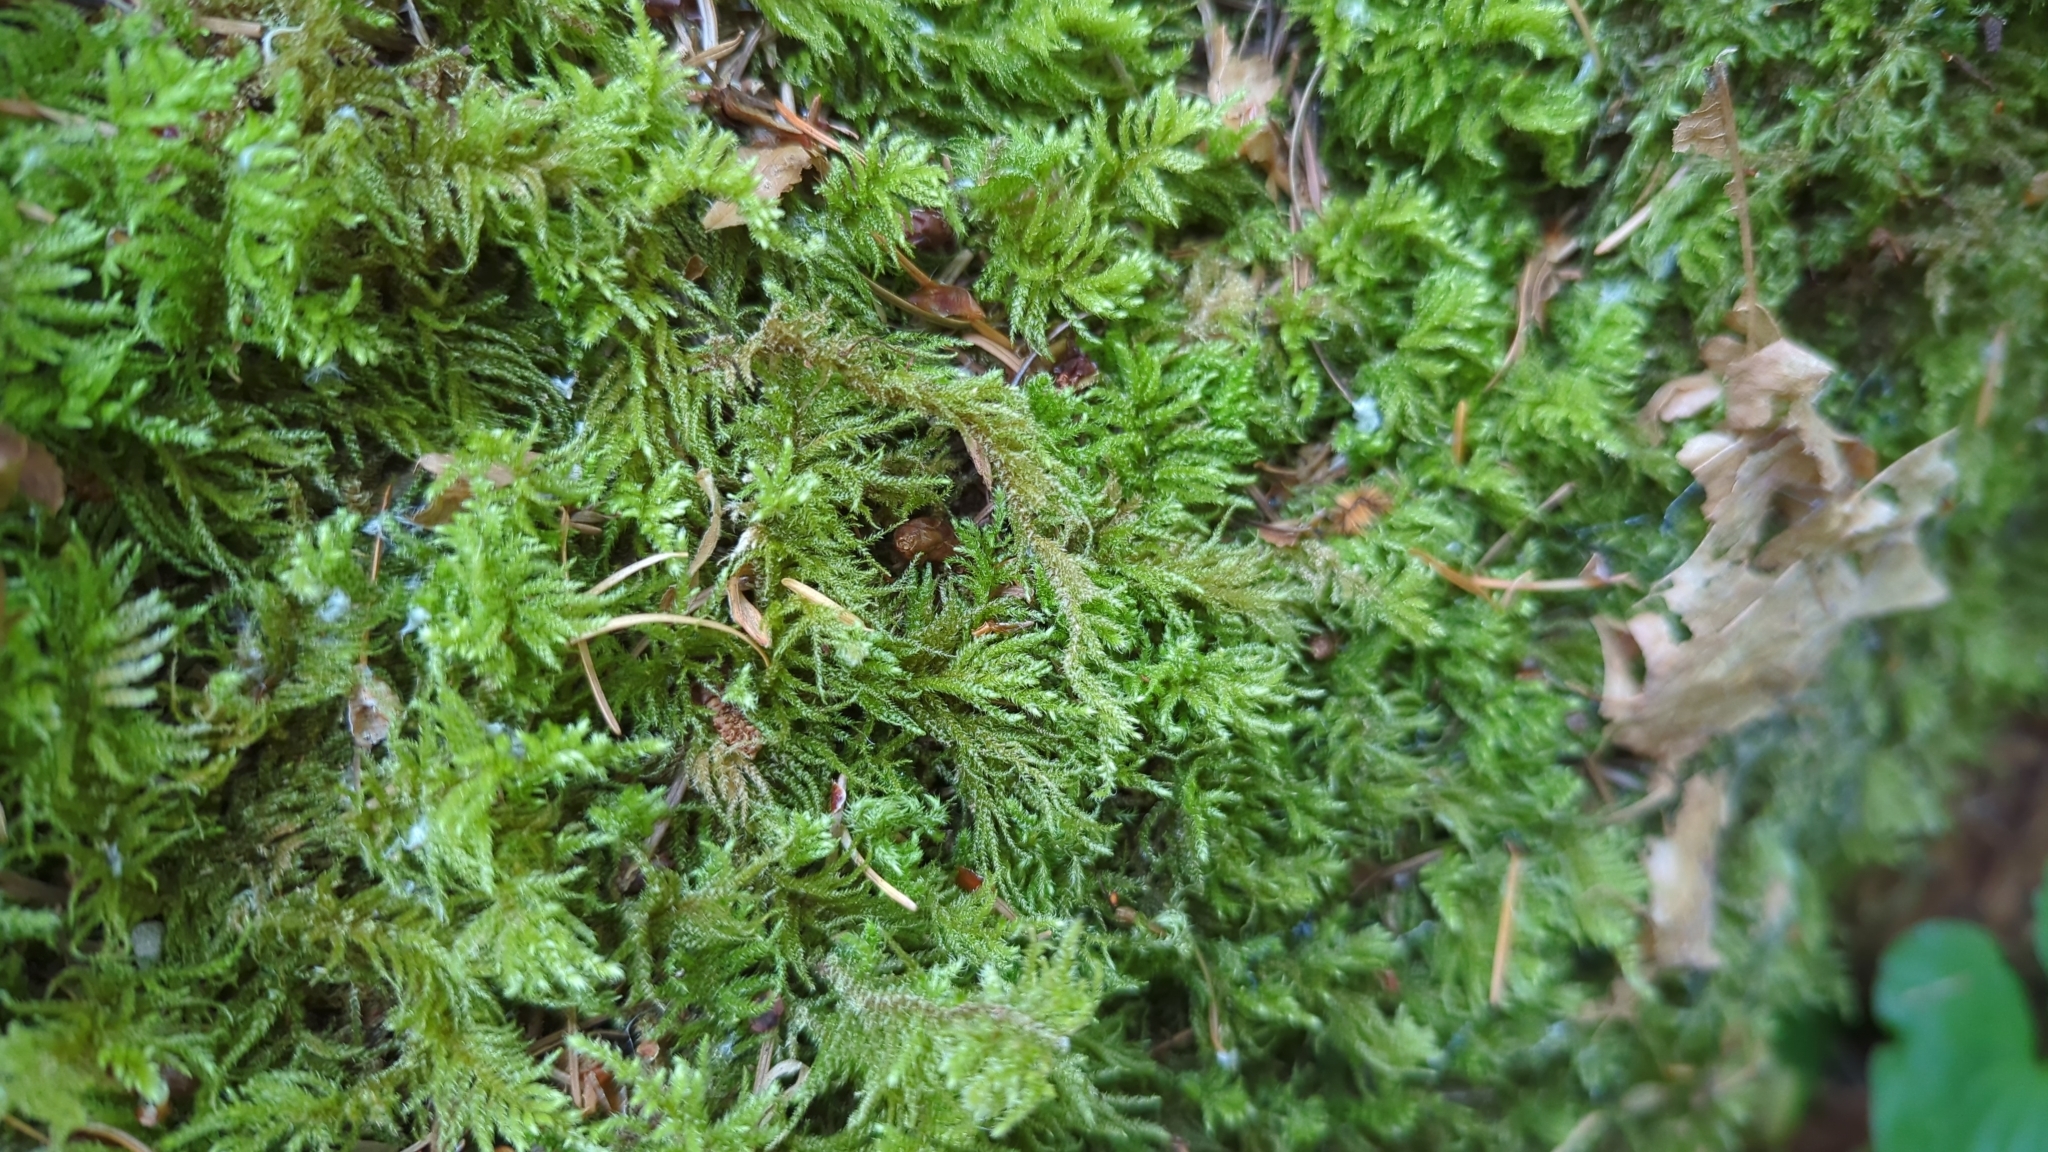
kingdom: Plantae
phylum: Bryophyta
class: Bryopsida
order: Hypnales
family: Brachytheciaceae
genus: Kindbergia
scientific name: Kindbergia oregana
